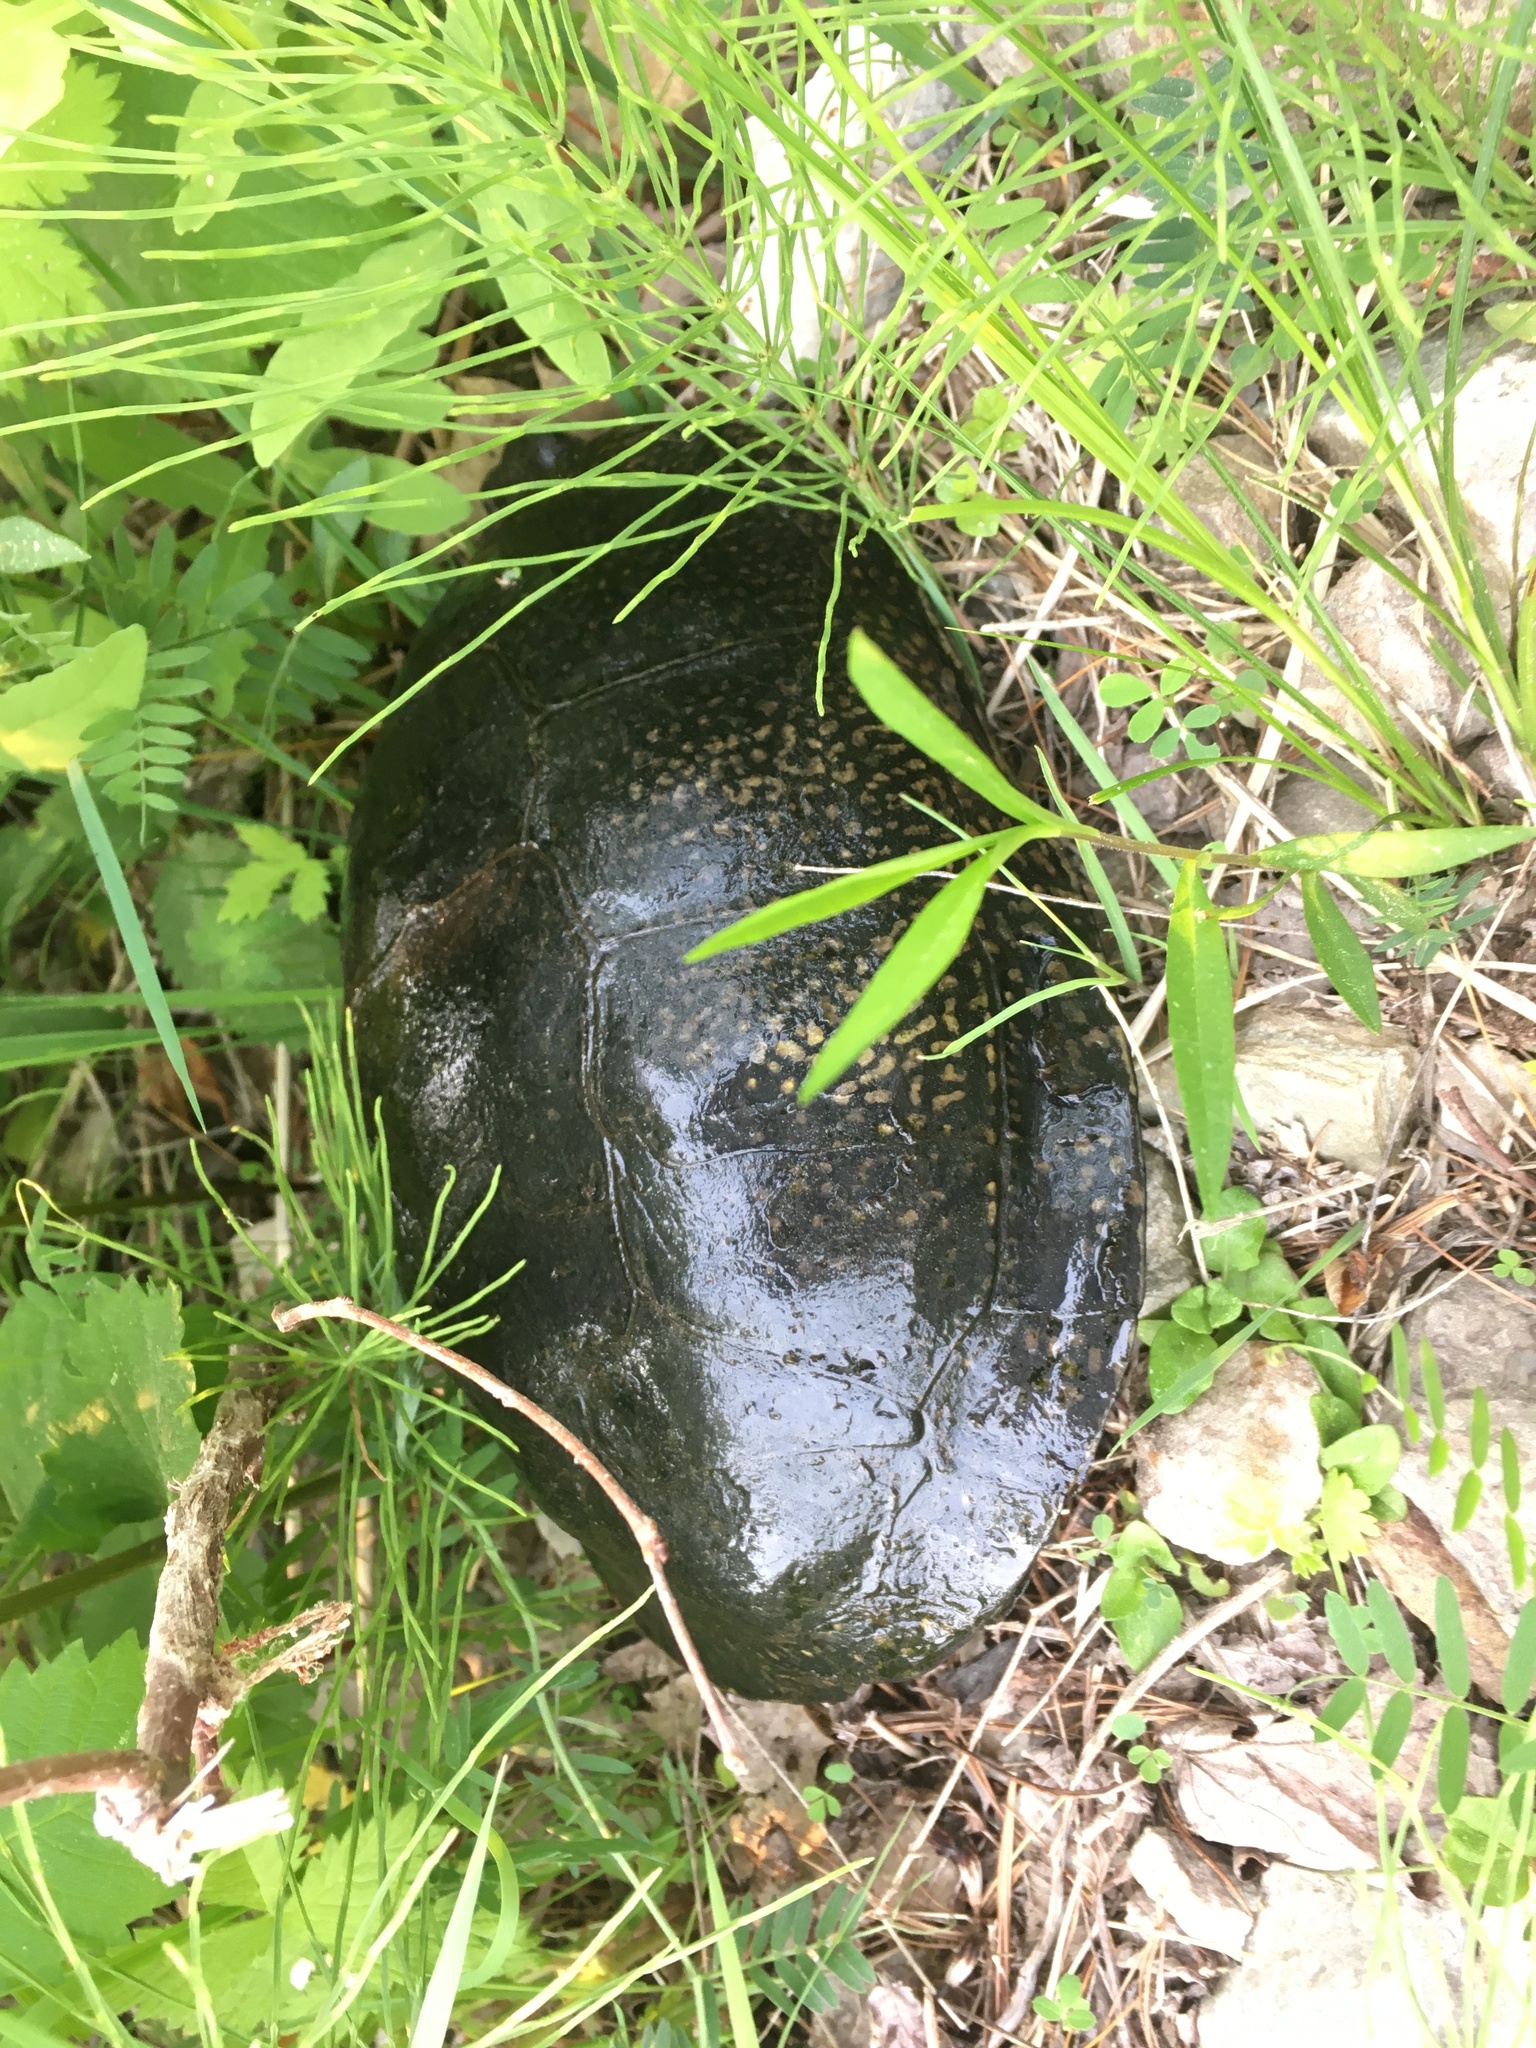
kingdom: Animalia
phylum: Chordata
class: Testudines
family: Emydidae
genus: Emys
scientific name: Emys blandingii
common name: Blanding's turtle
